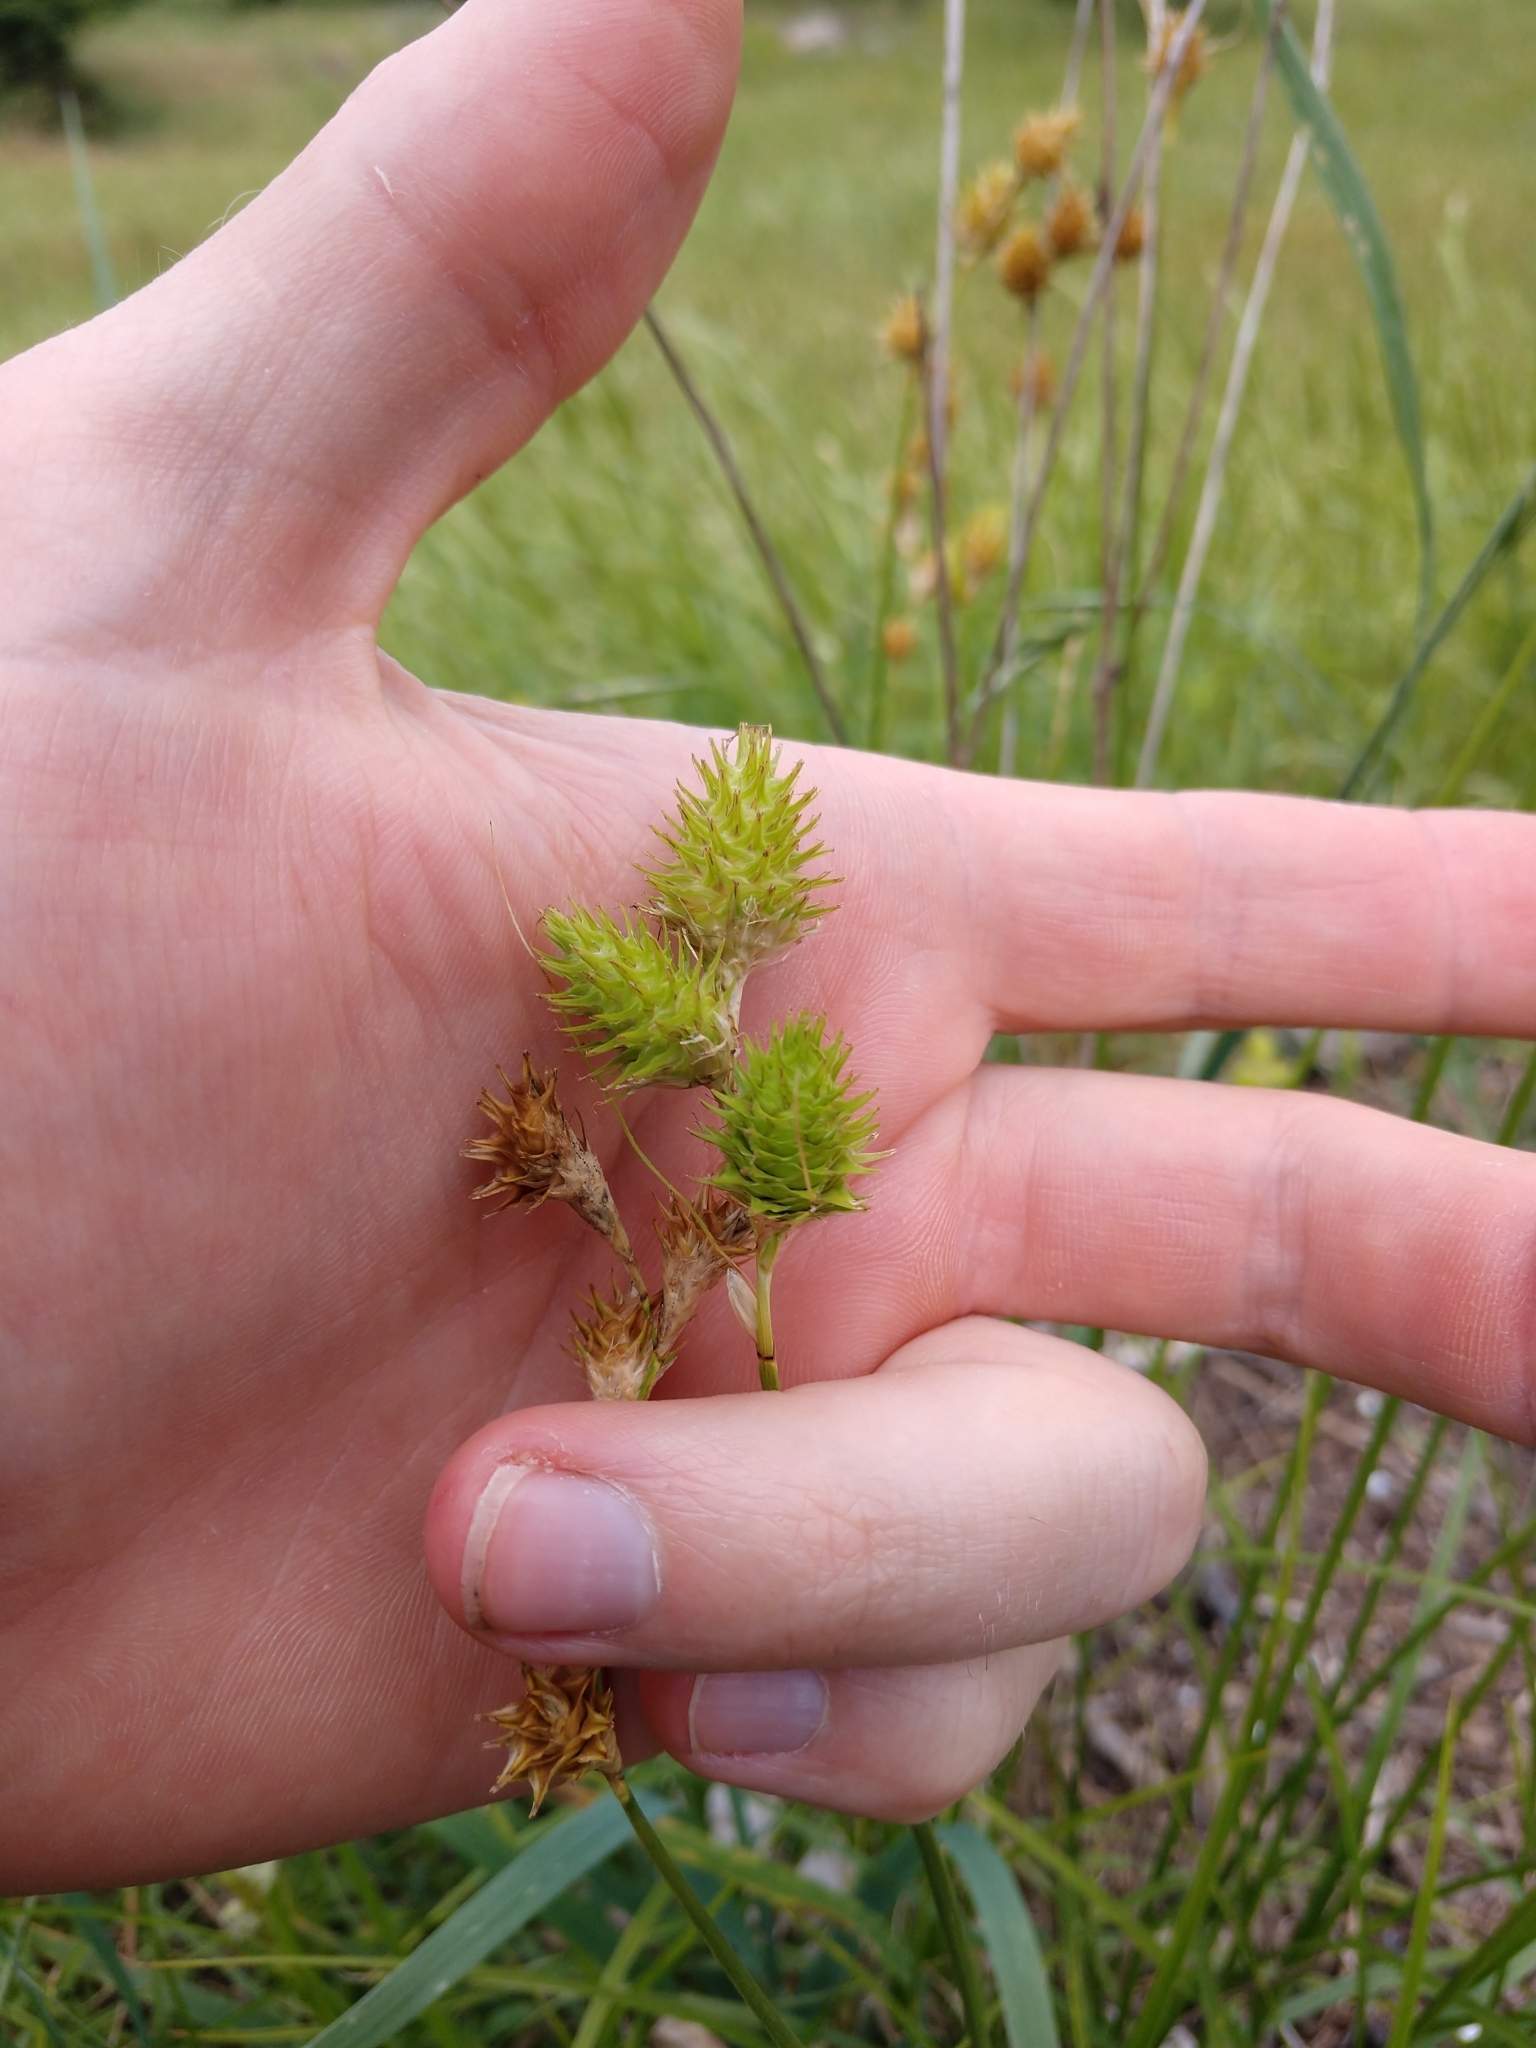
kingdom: Plantae
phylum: Tracheophyta
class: Liliopsida
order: Poales
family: Cyperaceae
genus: Carex
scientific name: Carex tetrastachya
